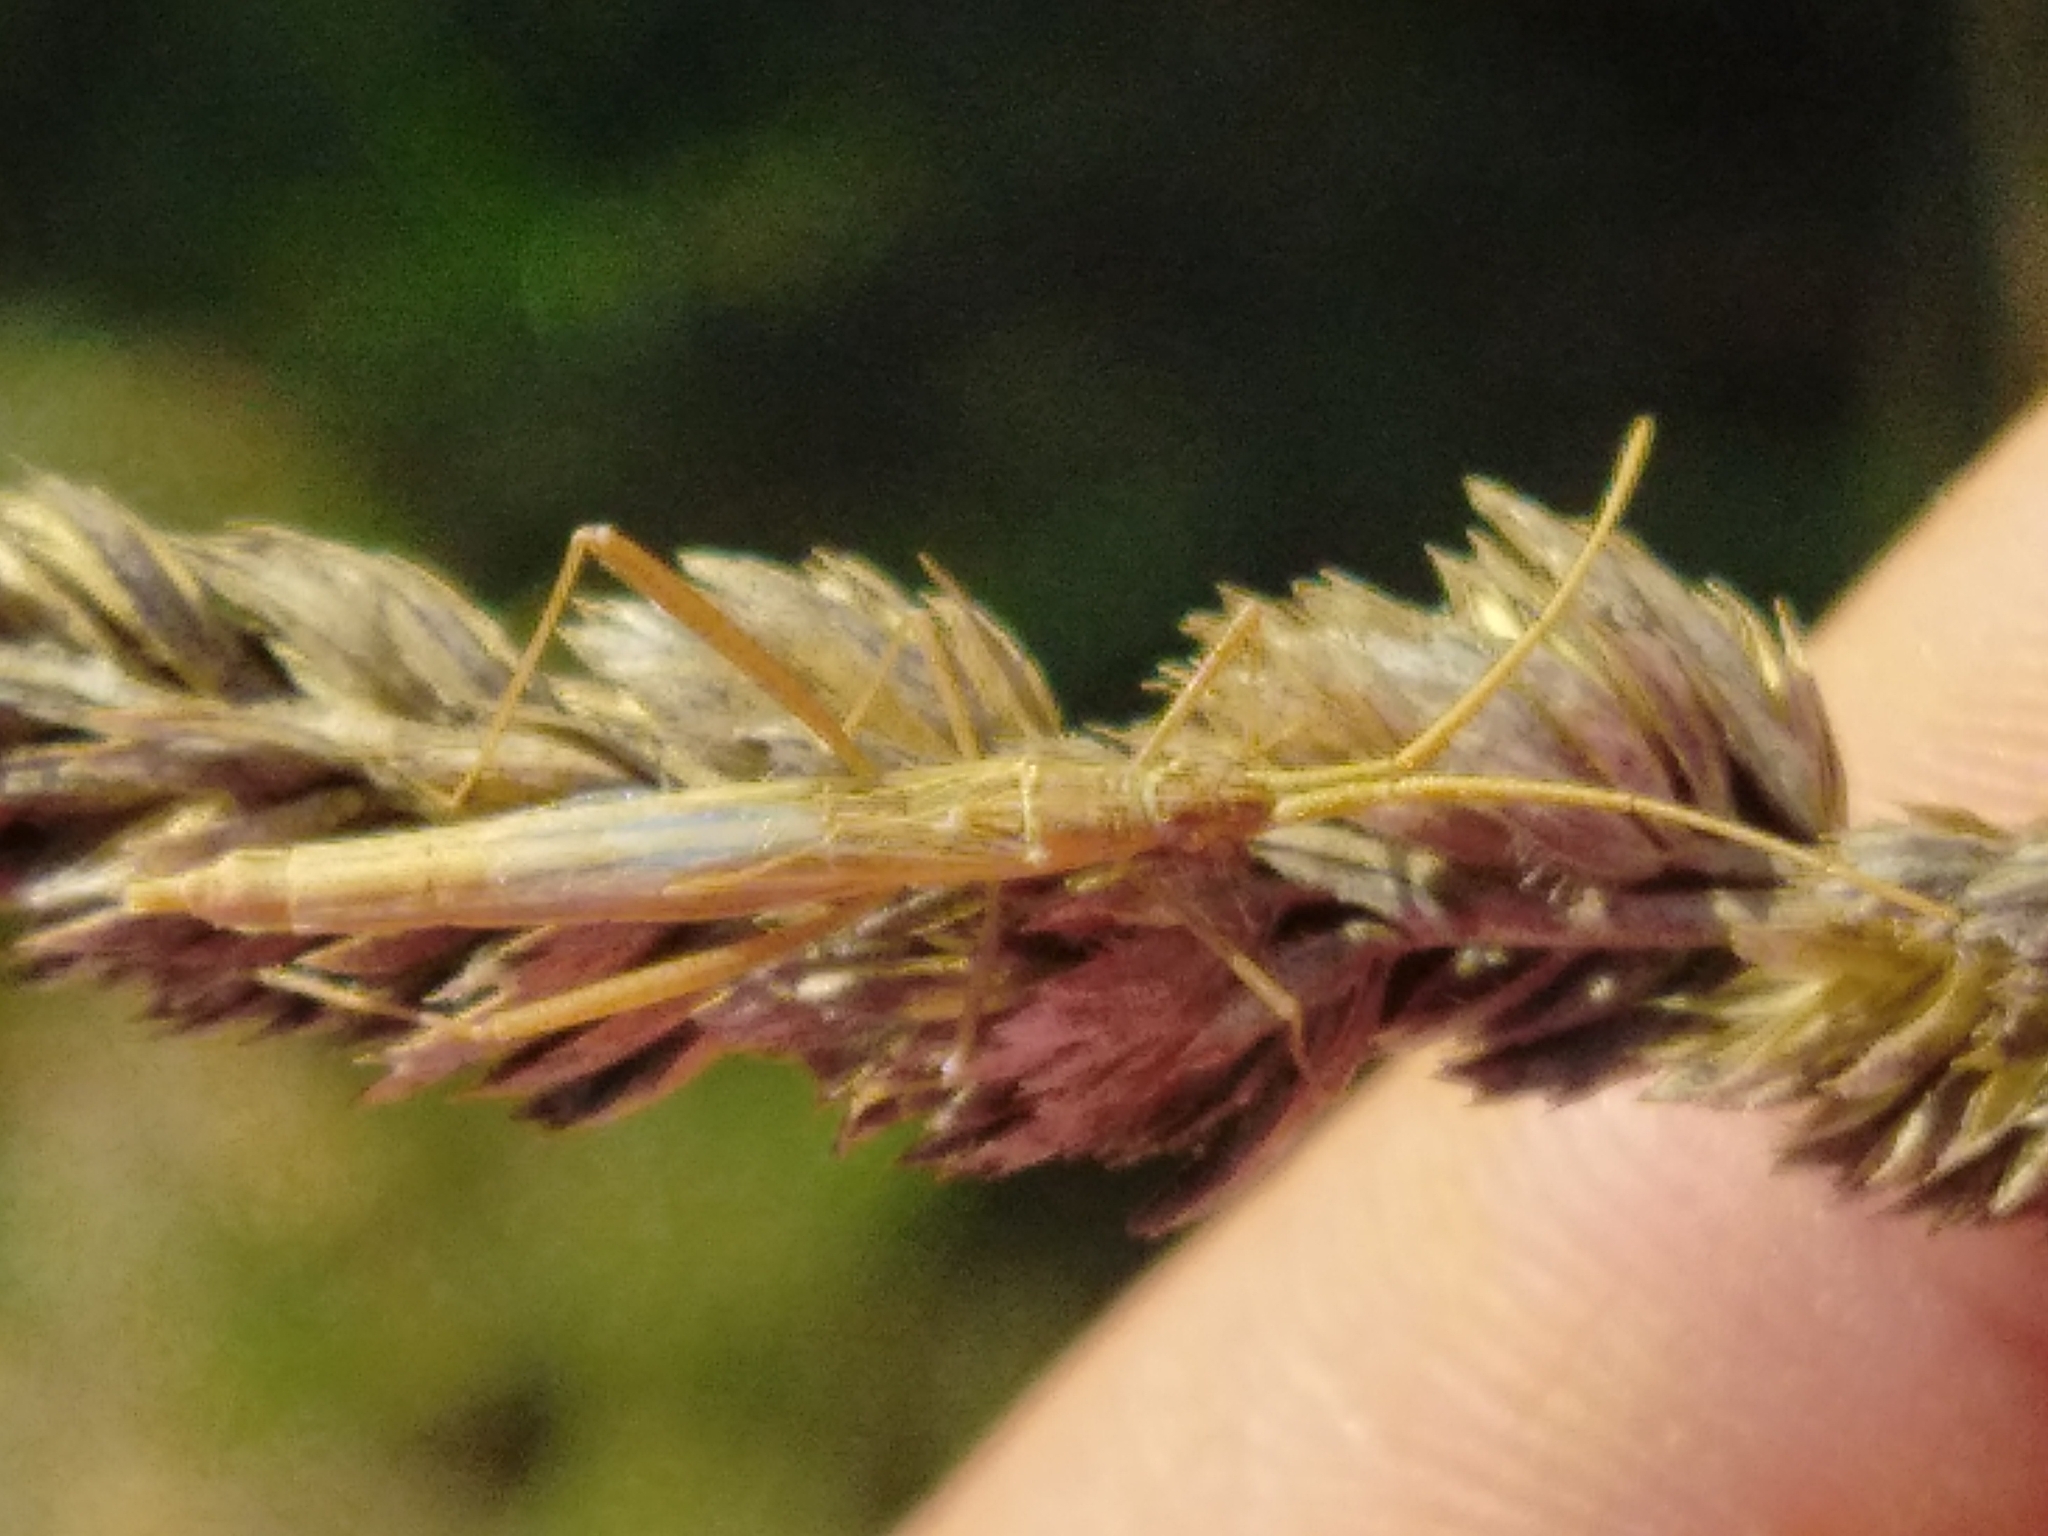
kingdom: Animalia
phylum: Arthropoda
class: Insecta
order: Hemiptera
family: Rhopalidae
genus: Chorosoma
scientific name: Chorosoma schillingii
